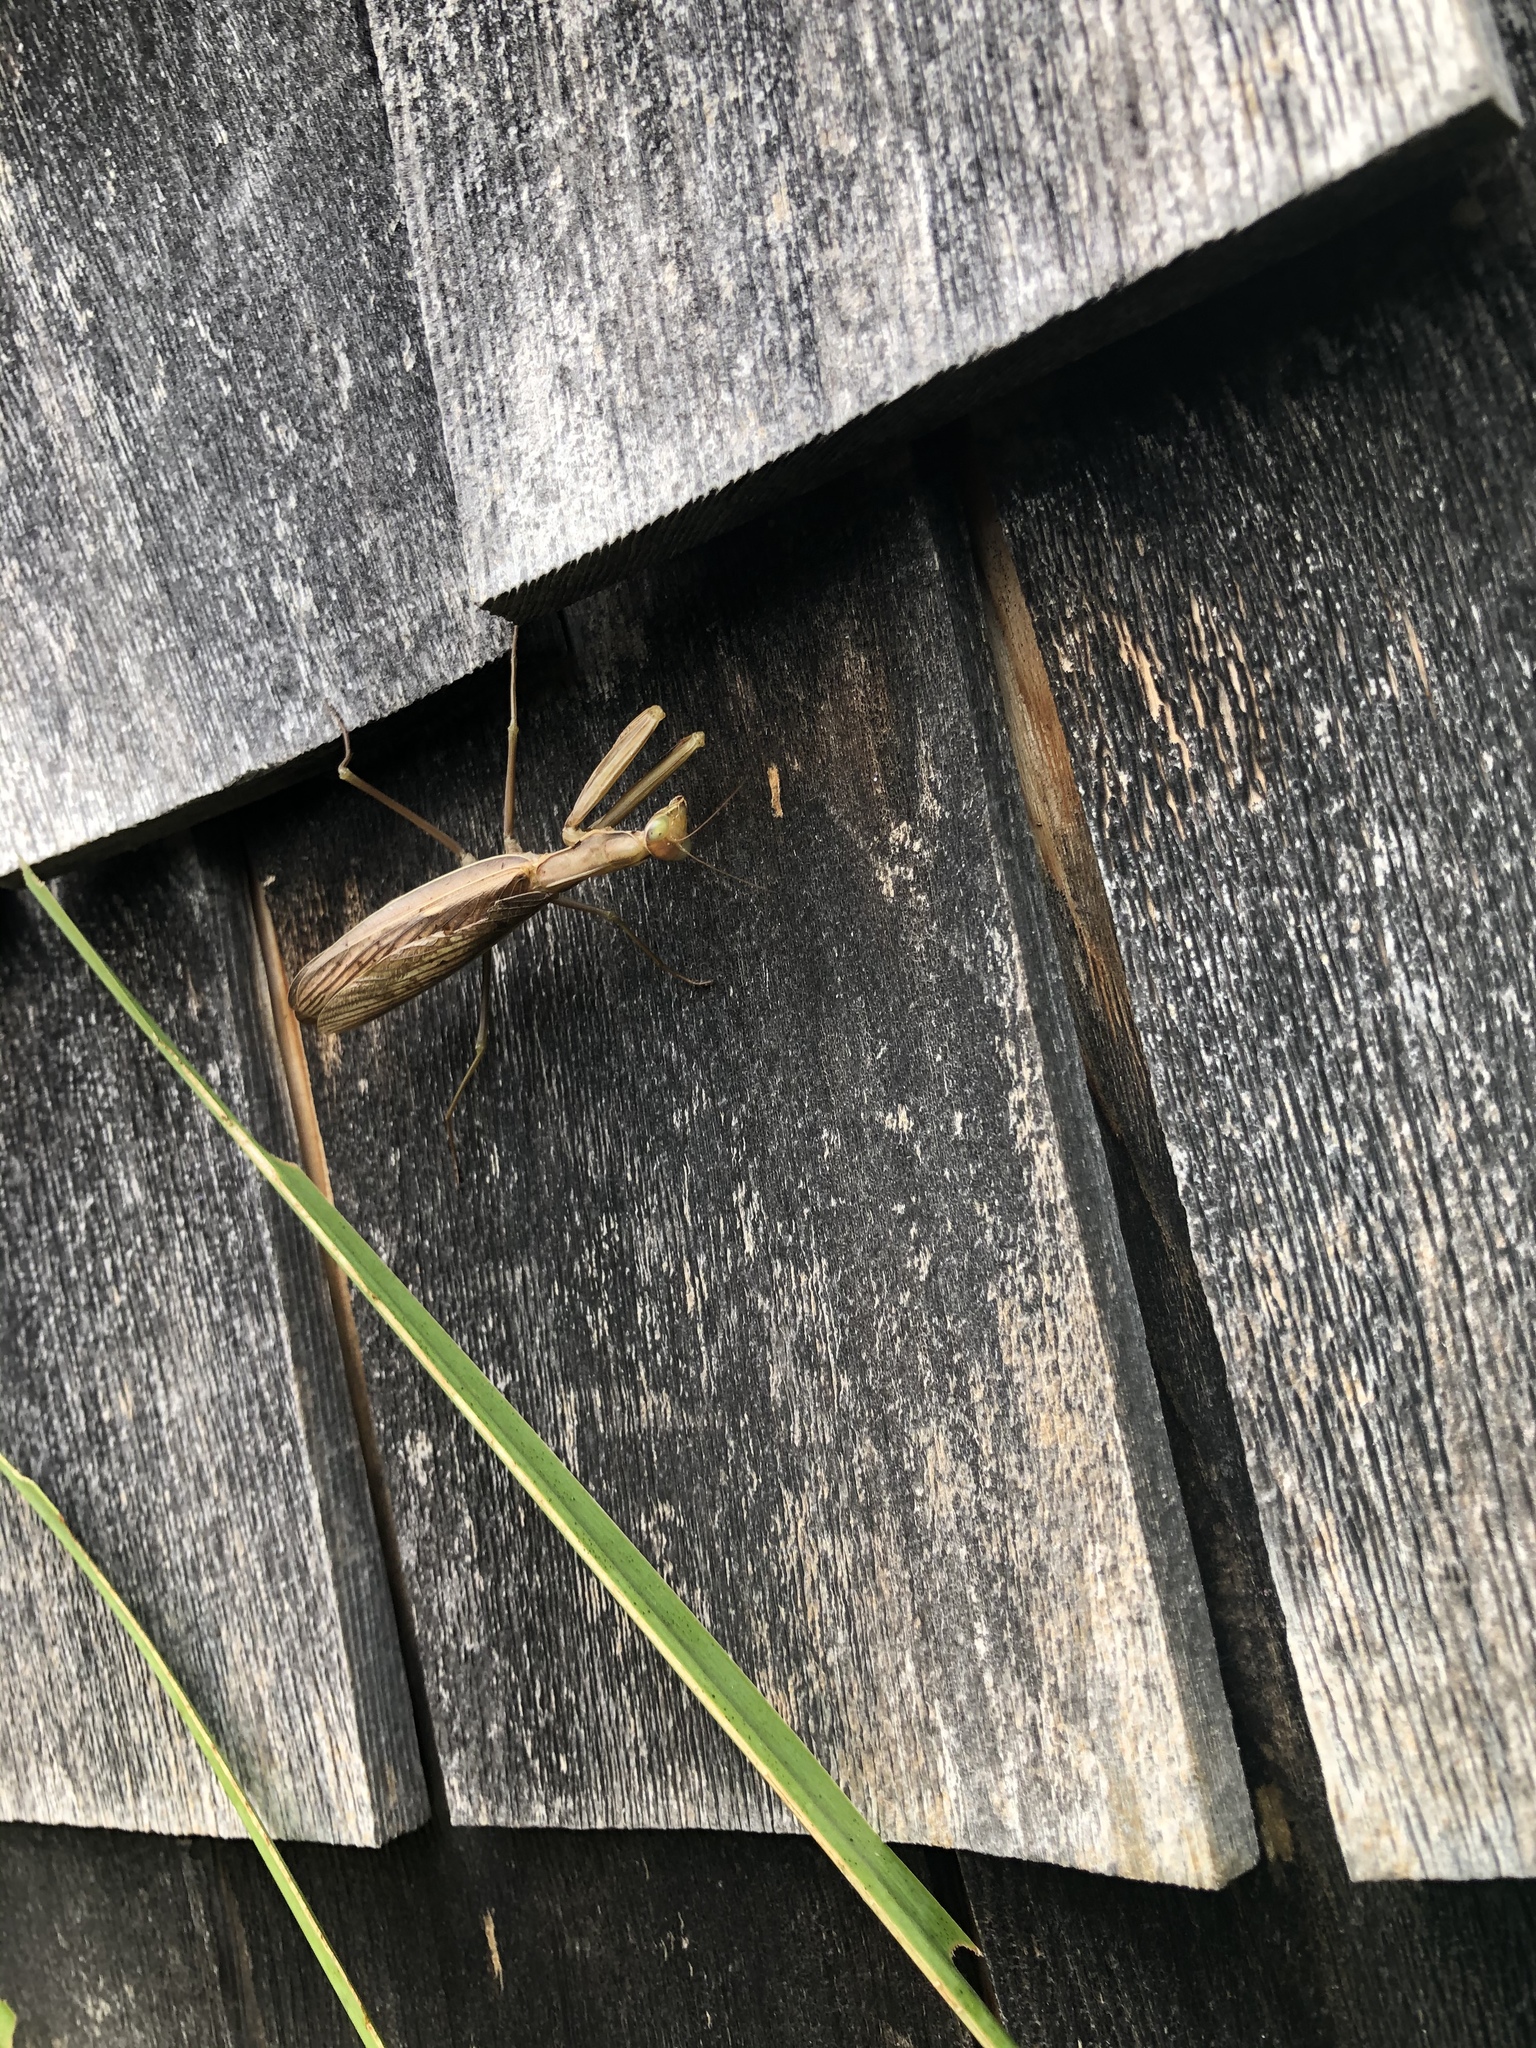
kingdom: Animalia
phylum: Arthropoda
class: Insecta
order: Mantodea
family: Mantidae
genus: Mantis
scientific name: Mantis religiosa
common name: Praying mantis
